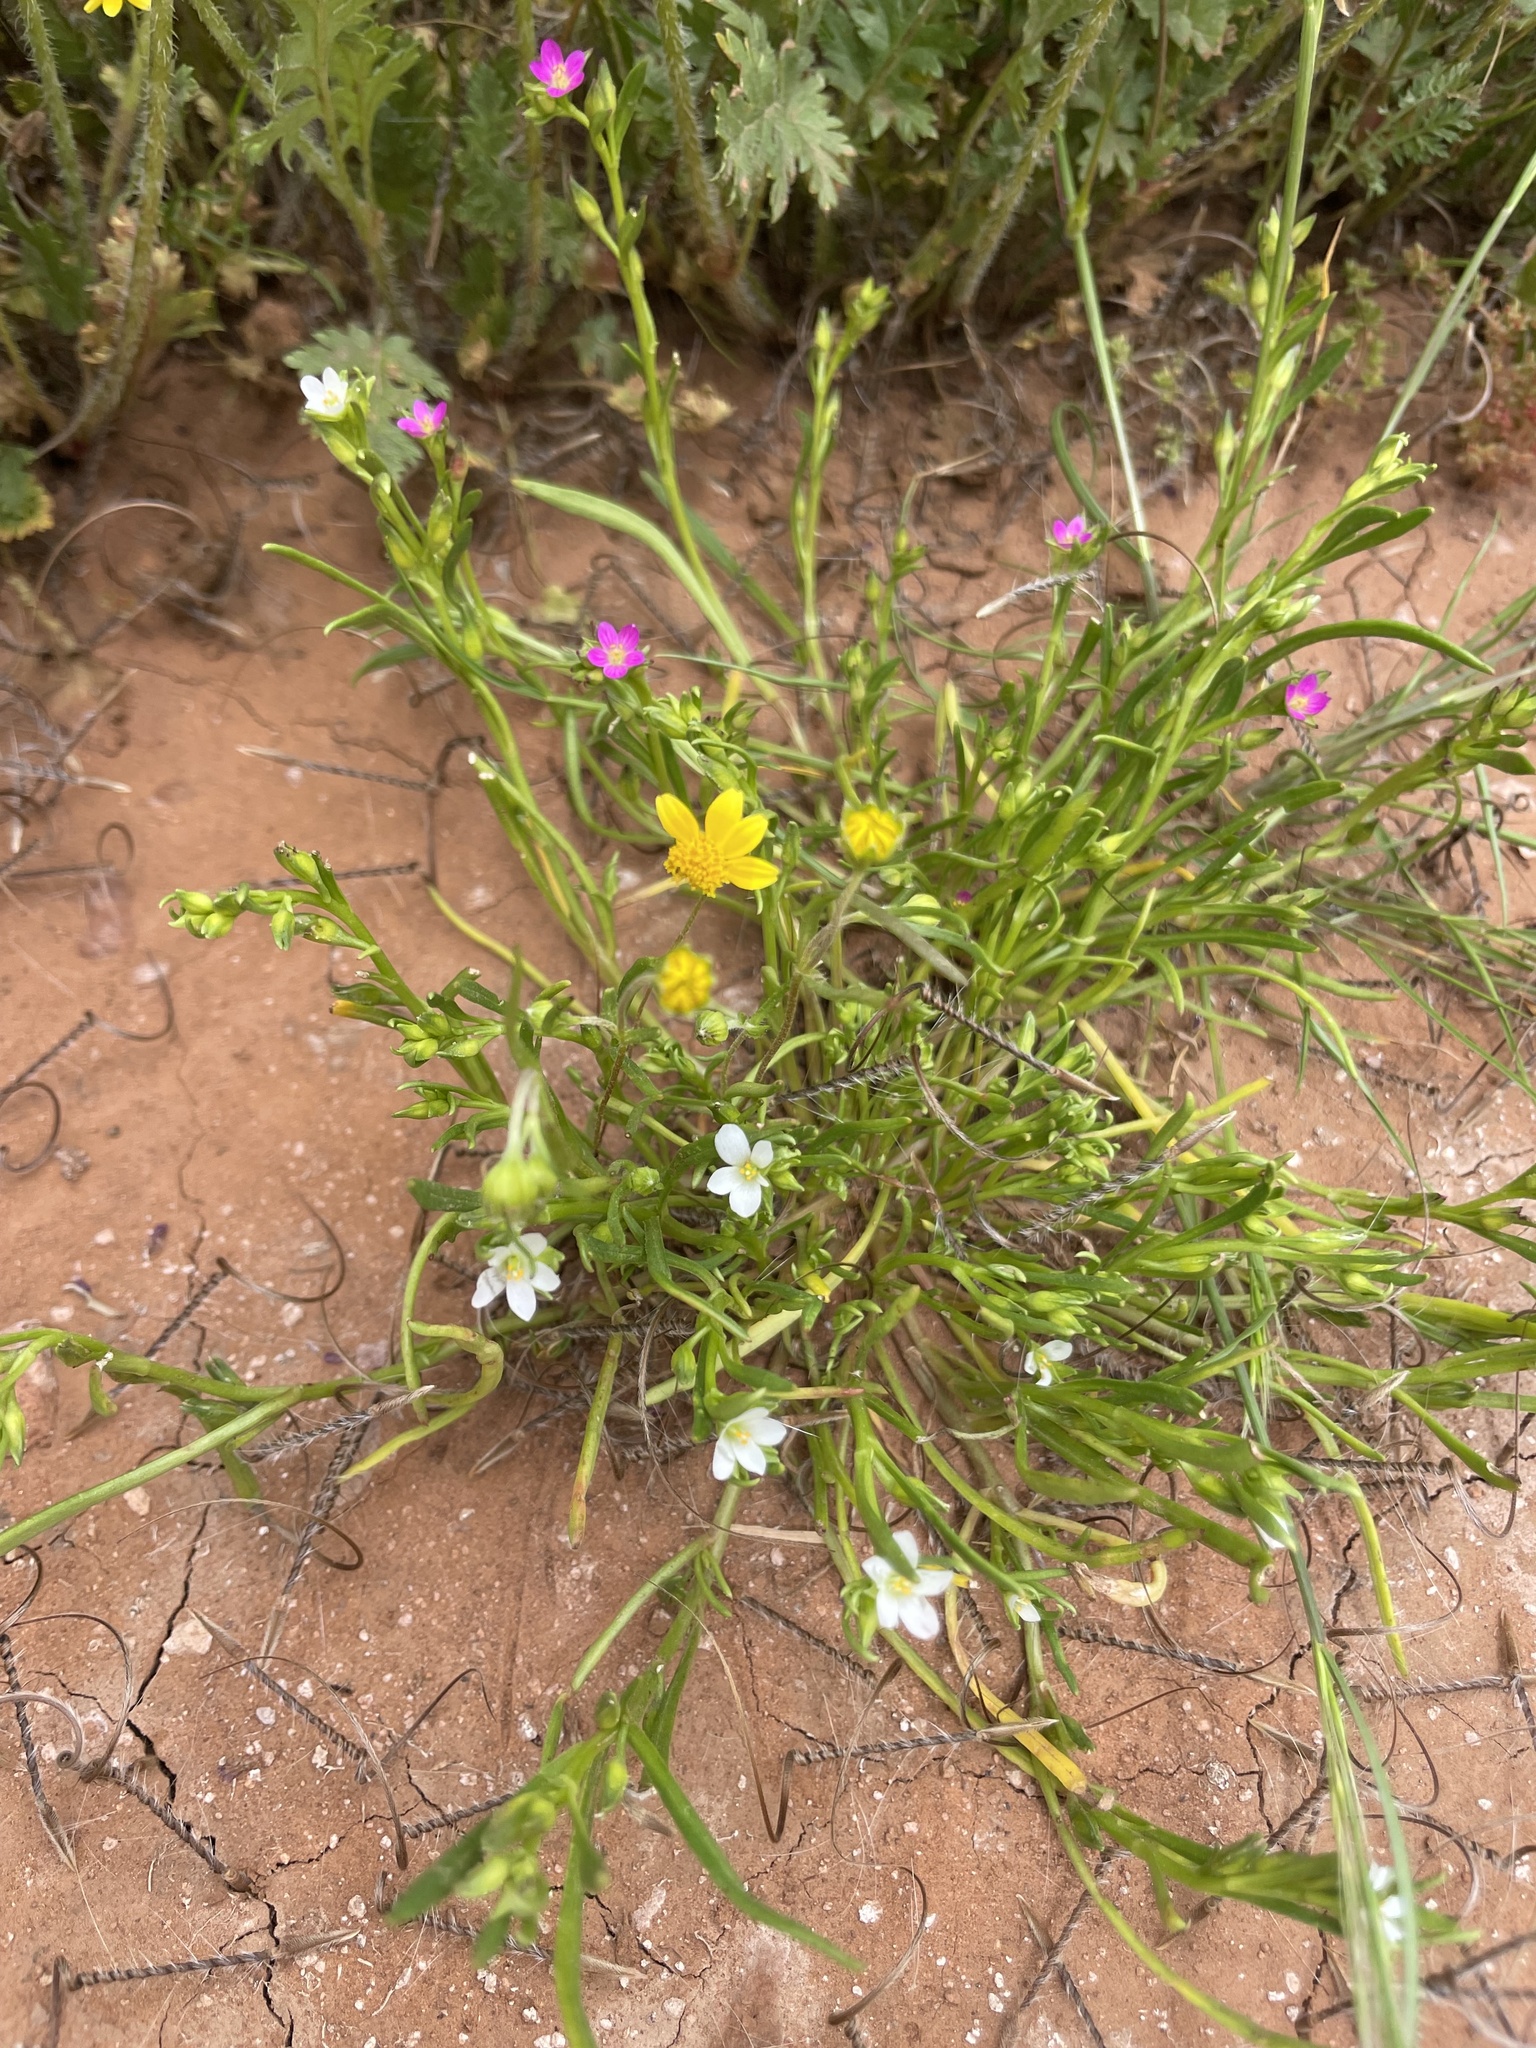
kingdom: Plantae
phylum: Tracheophyta
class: Magnoliopsida
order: Caryophyllales
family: Montiaceae
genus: Calandrinia
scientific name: Calandrinia menziesii
